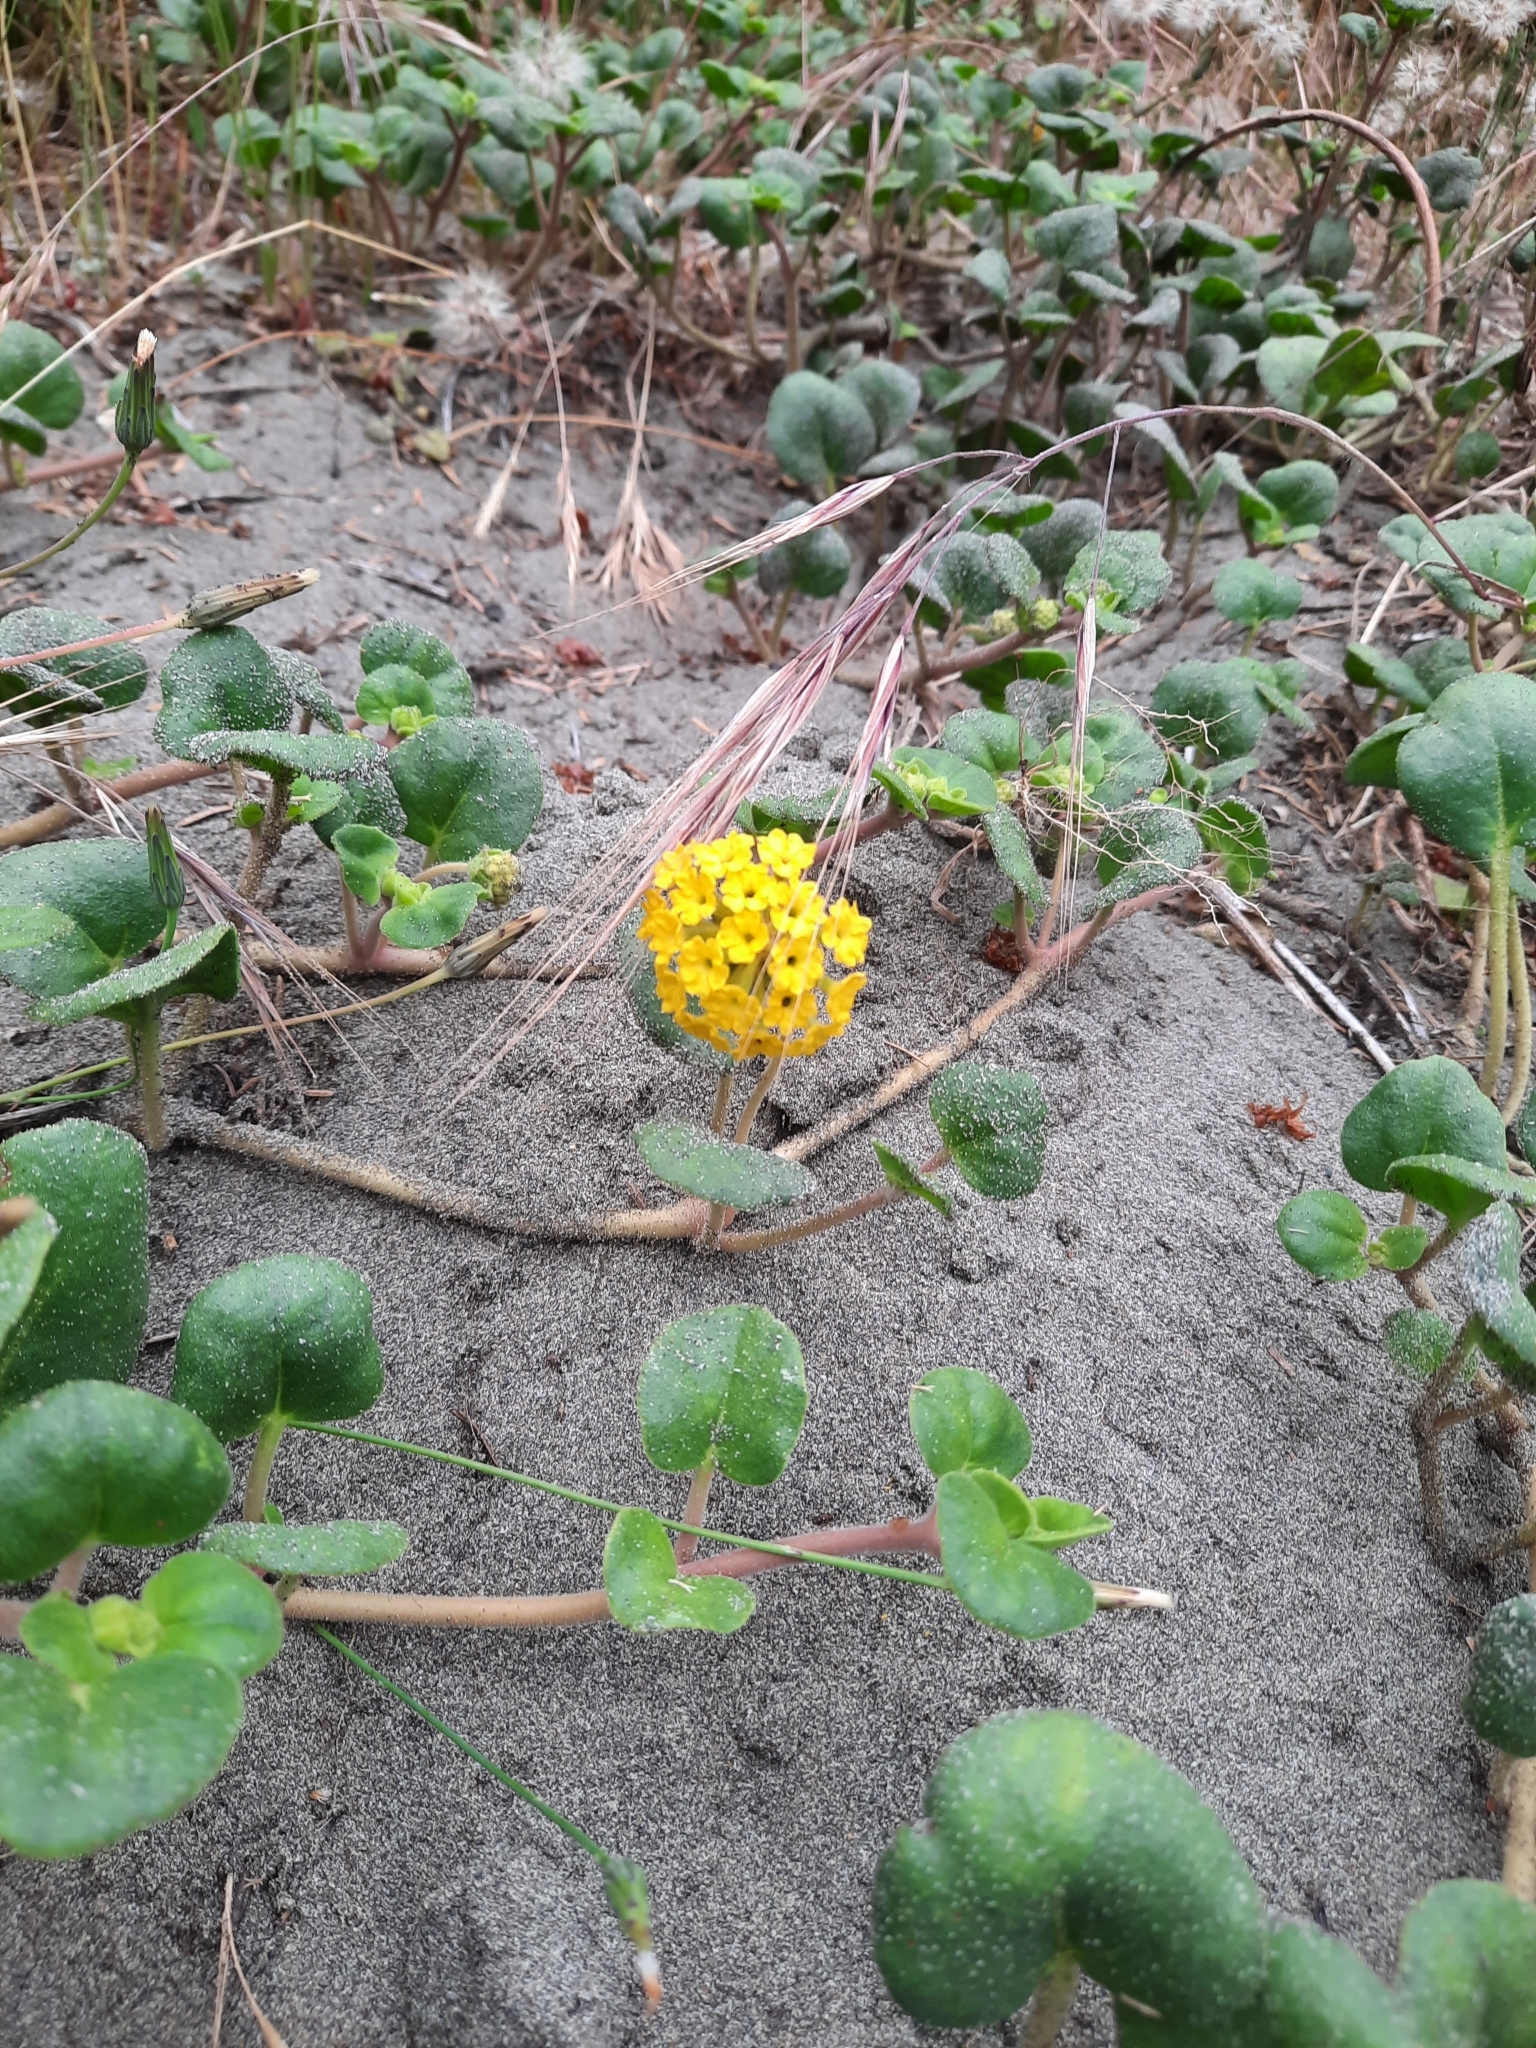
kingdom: Plantae
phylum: Tracheophyta
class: Magnoliopsida
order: Caryophyllales
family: Nyctaginaceae
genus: Abronia
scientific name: Abronia latifolia
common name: Yellow sand-verbena
